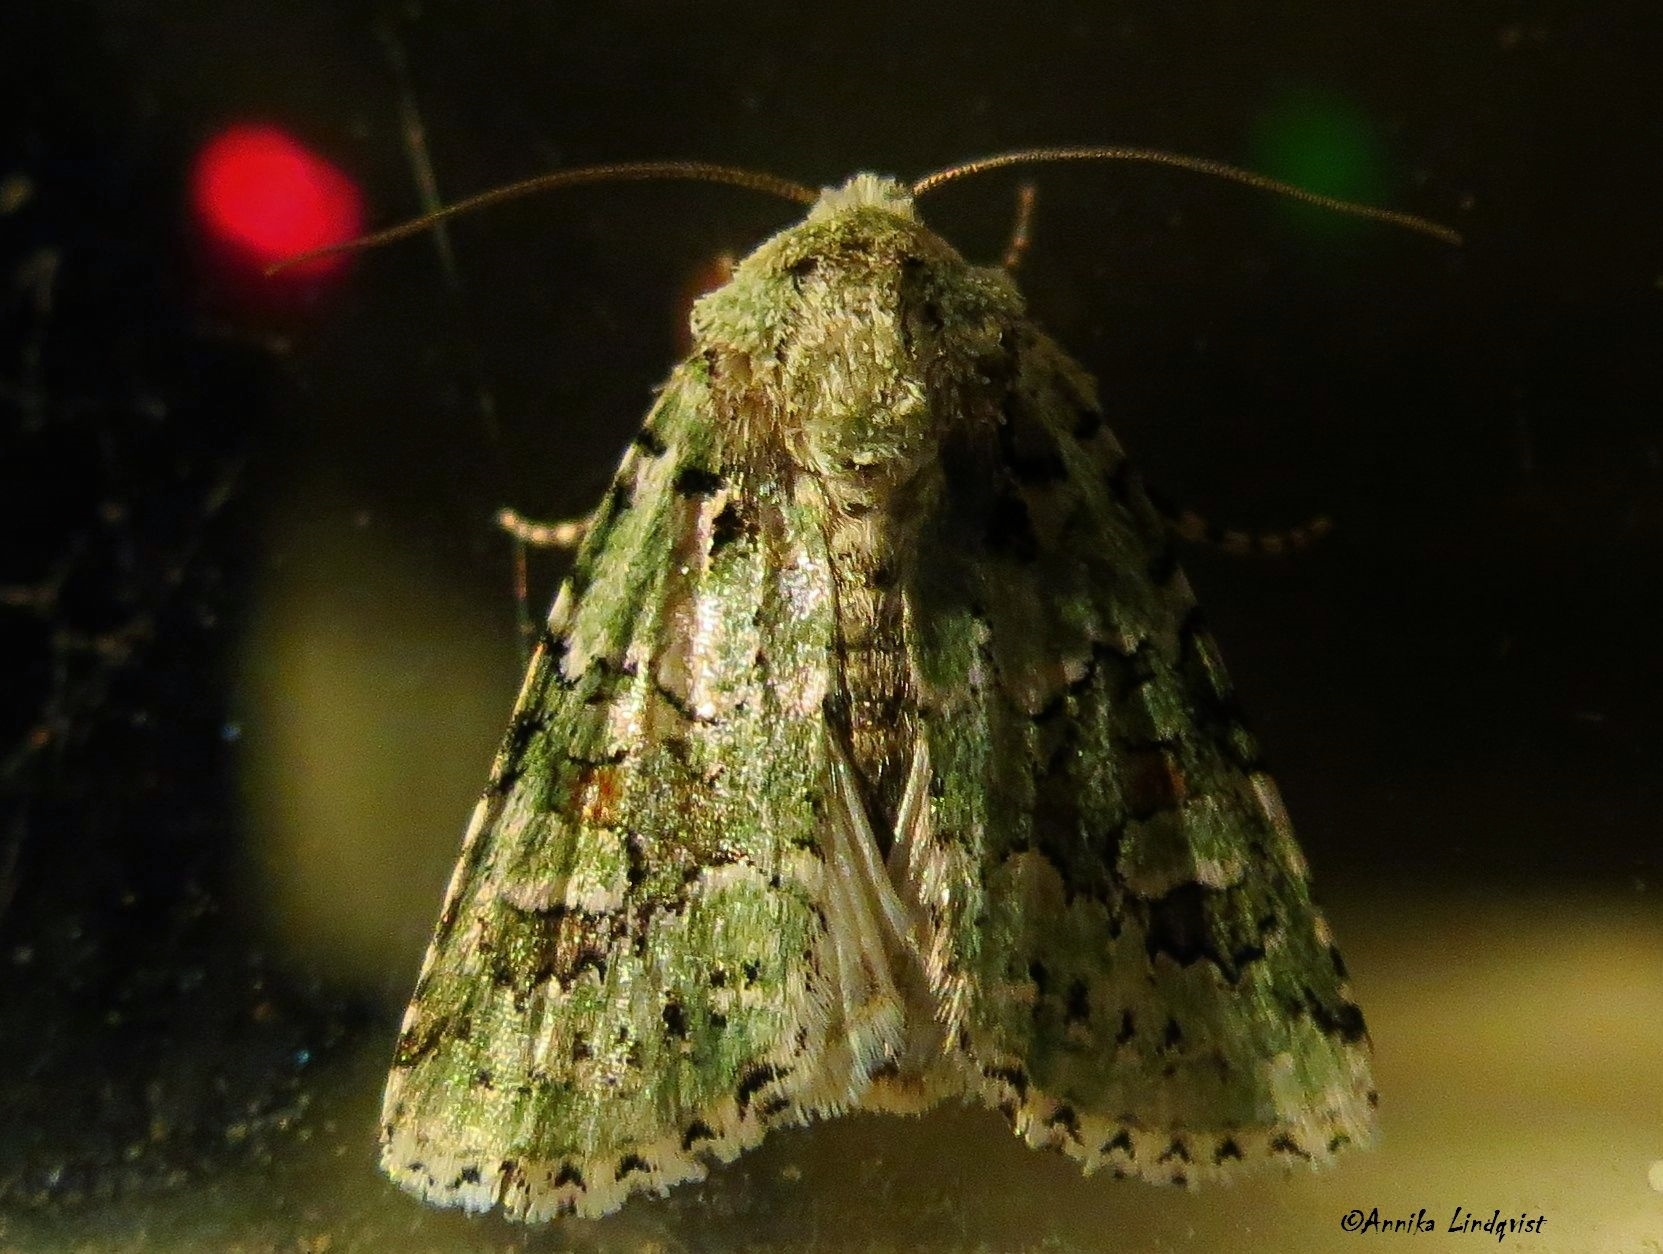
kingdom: Animalia
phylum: Arthropoda
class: Insecta
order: Lepidoptera
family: Noctuidae
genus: Lacinipolia
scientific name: Lacinipolia laudabilis
